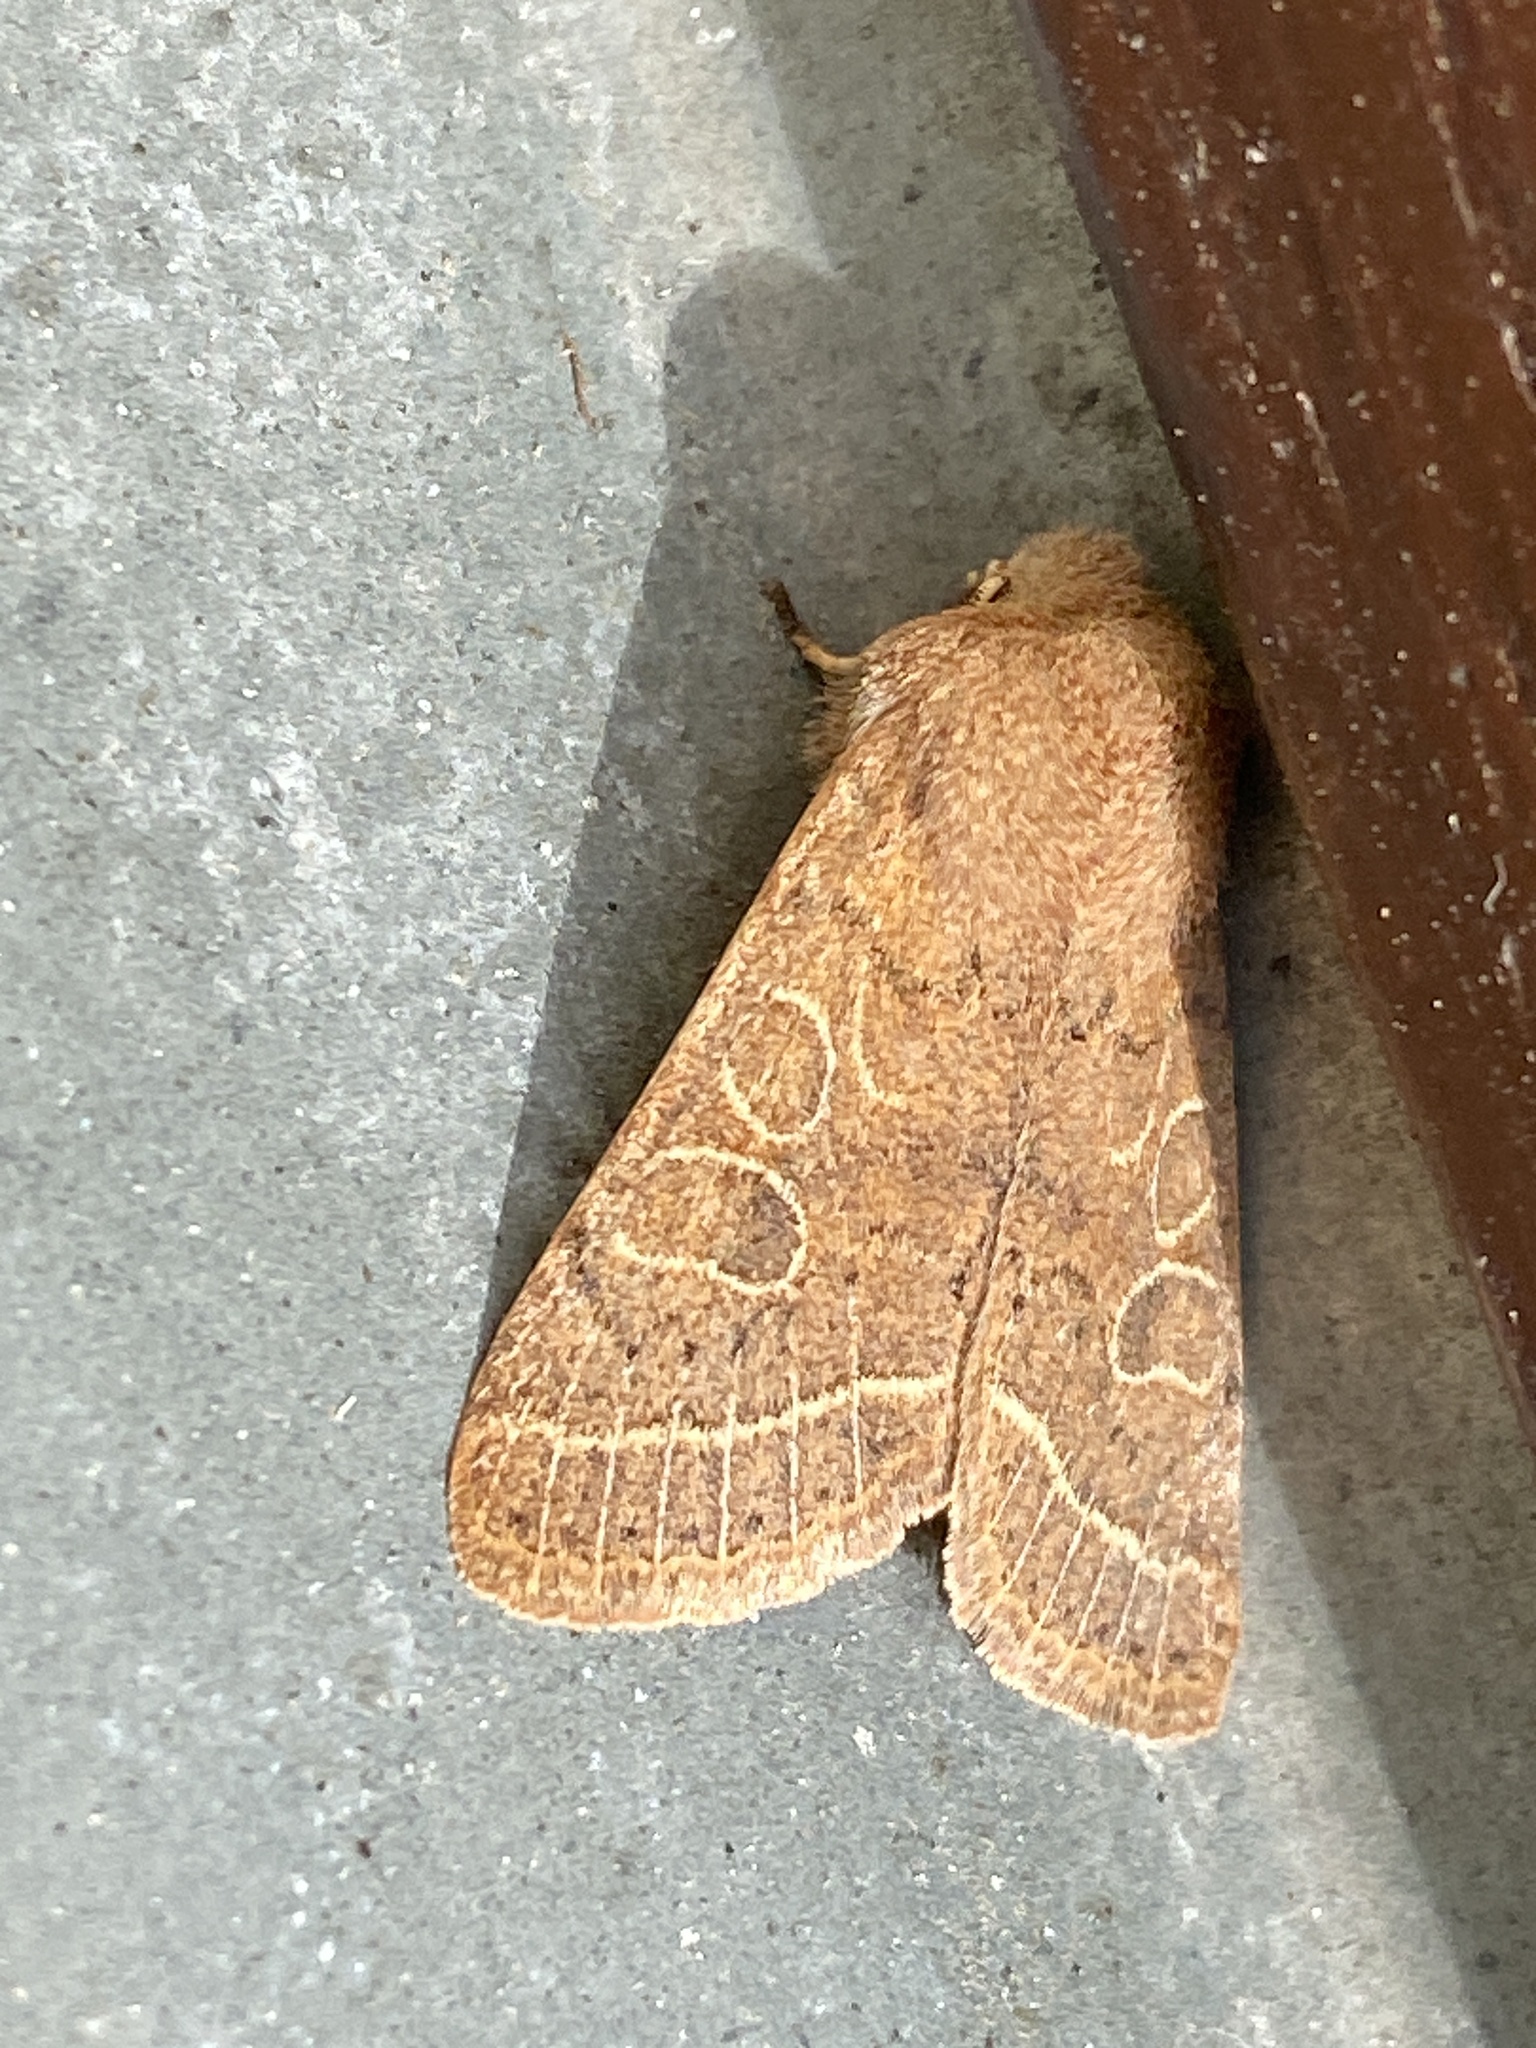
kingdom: Animalia
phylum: Arthropoda
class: Insecta
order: Lepidoptera
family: Noctuidae
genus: Orthosia
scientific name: Orthosia cerasi
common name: Common quaker
